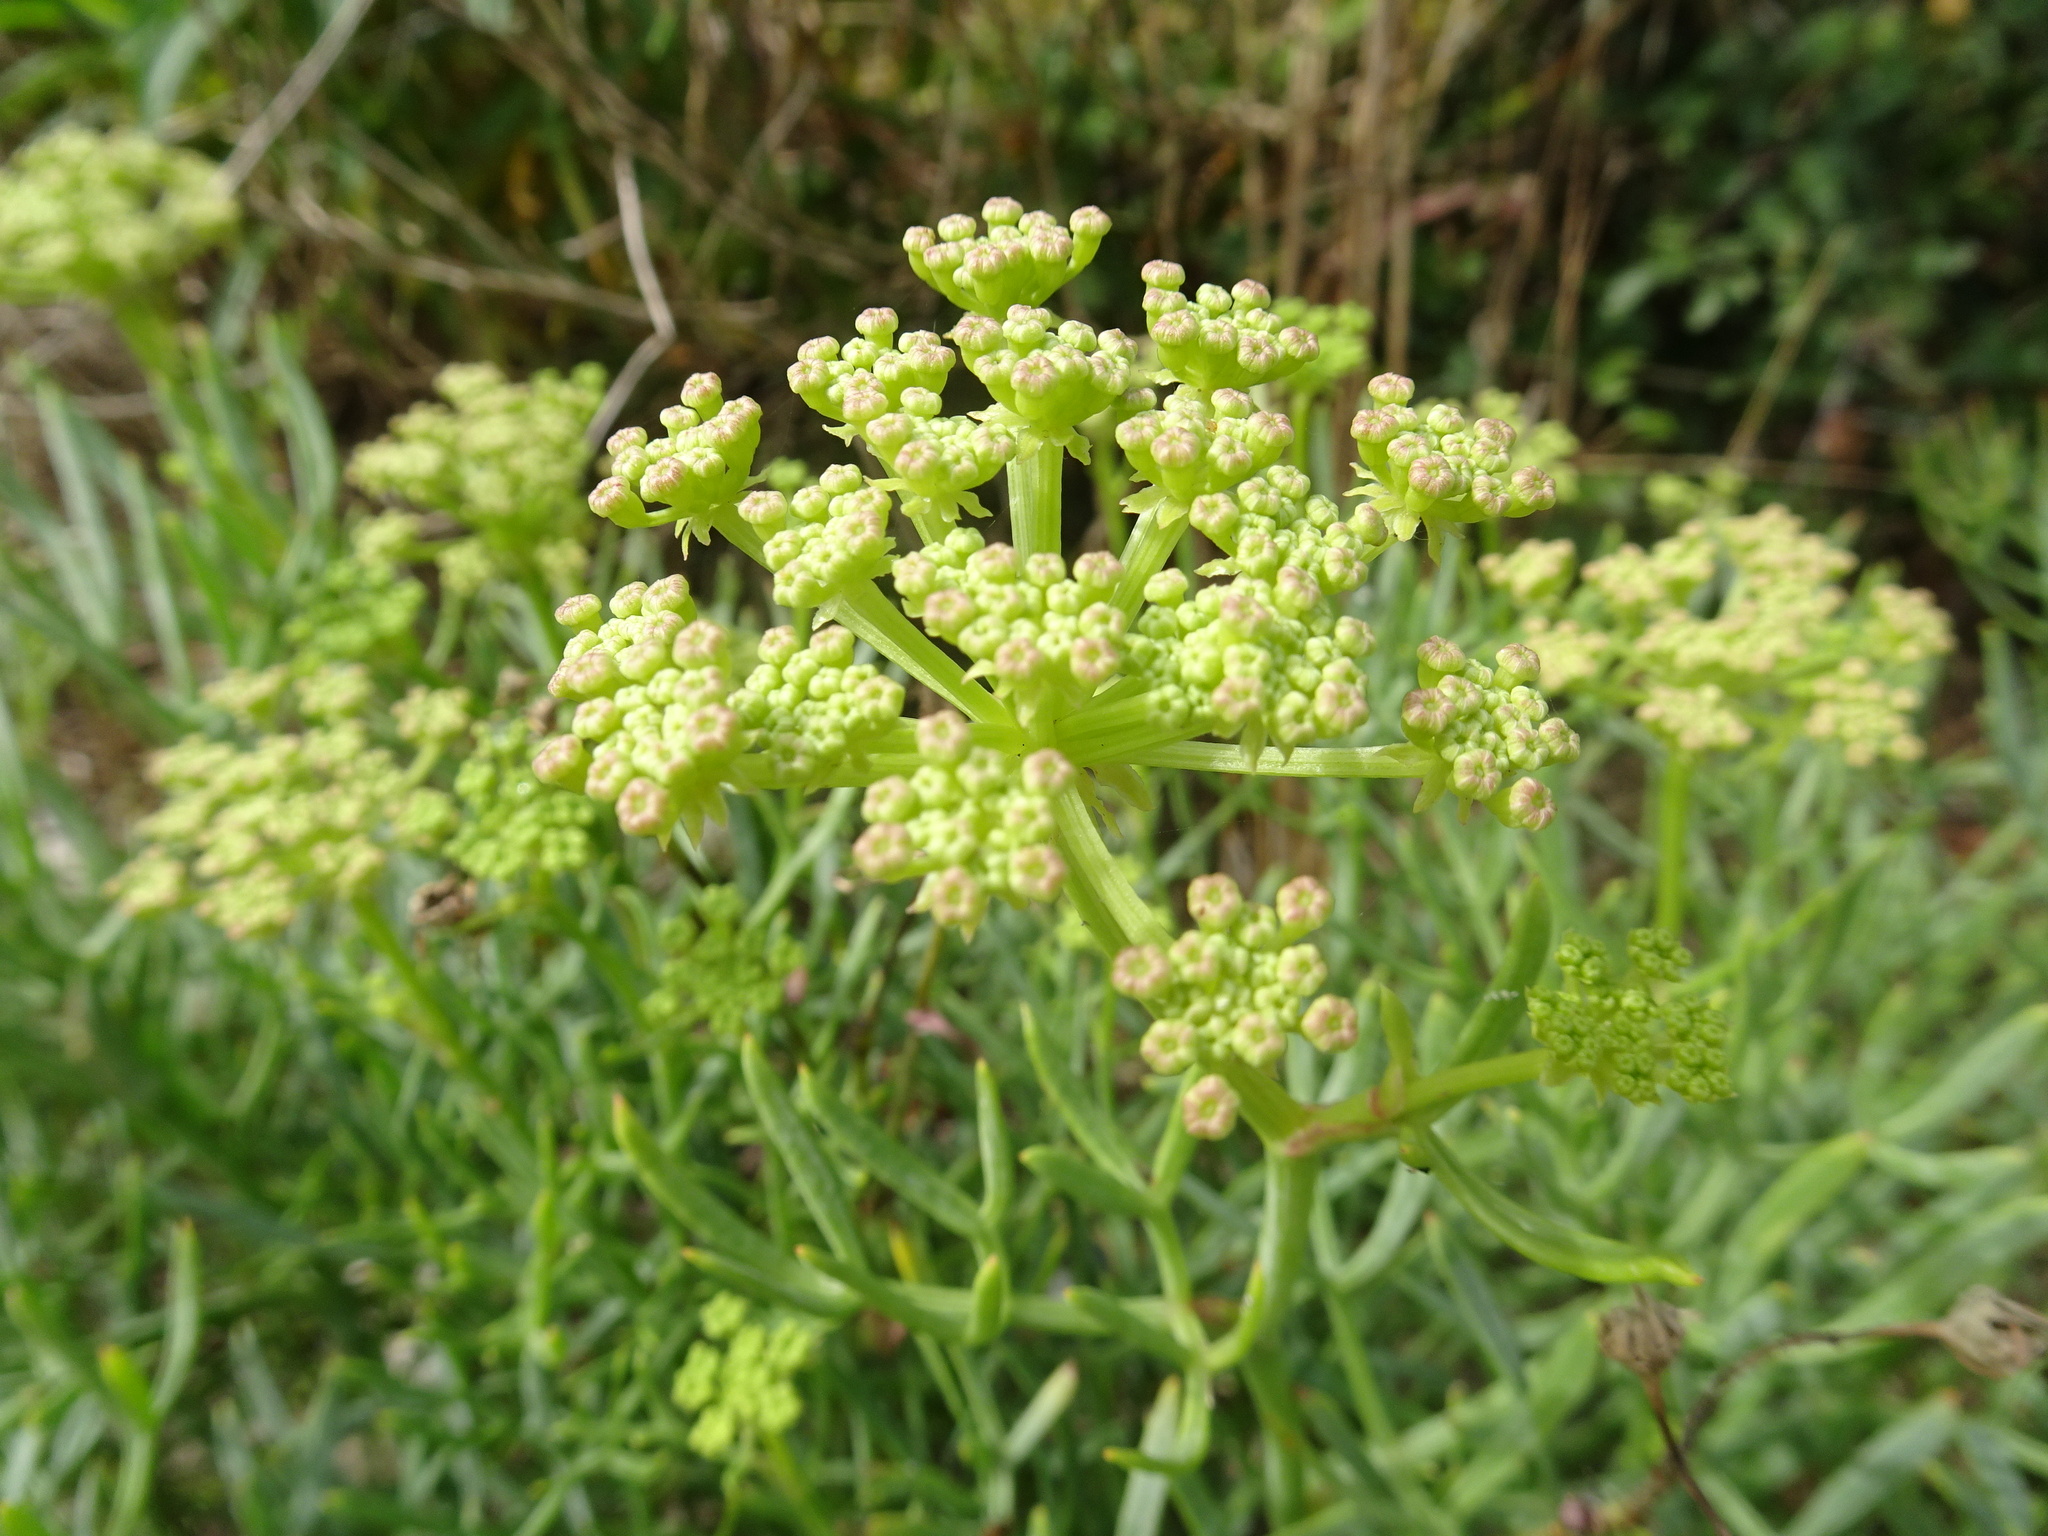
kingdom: Plantae
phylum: Tracheophyta
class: Magnoliopsida
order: Apiales
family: Apiaceae
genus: Crithmum
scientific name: Crithmum maritimum
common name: Rock samphire
